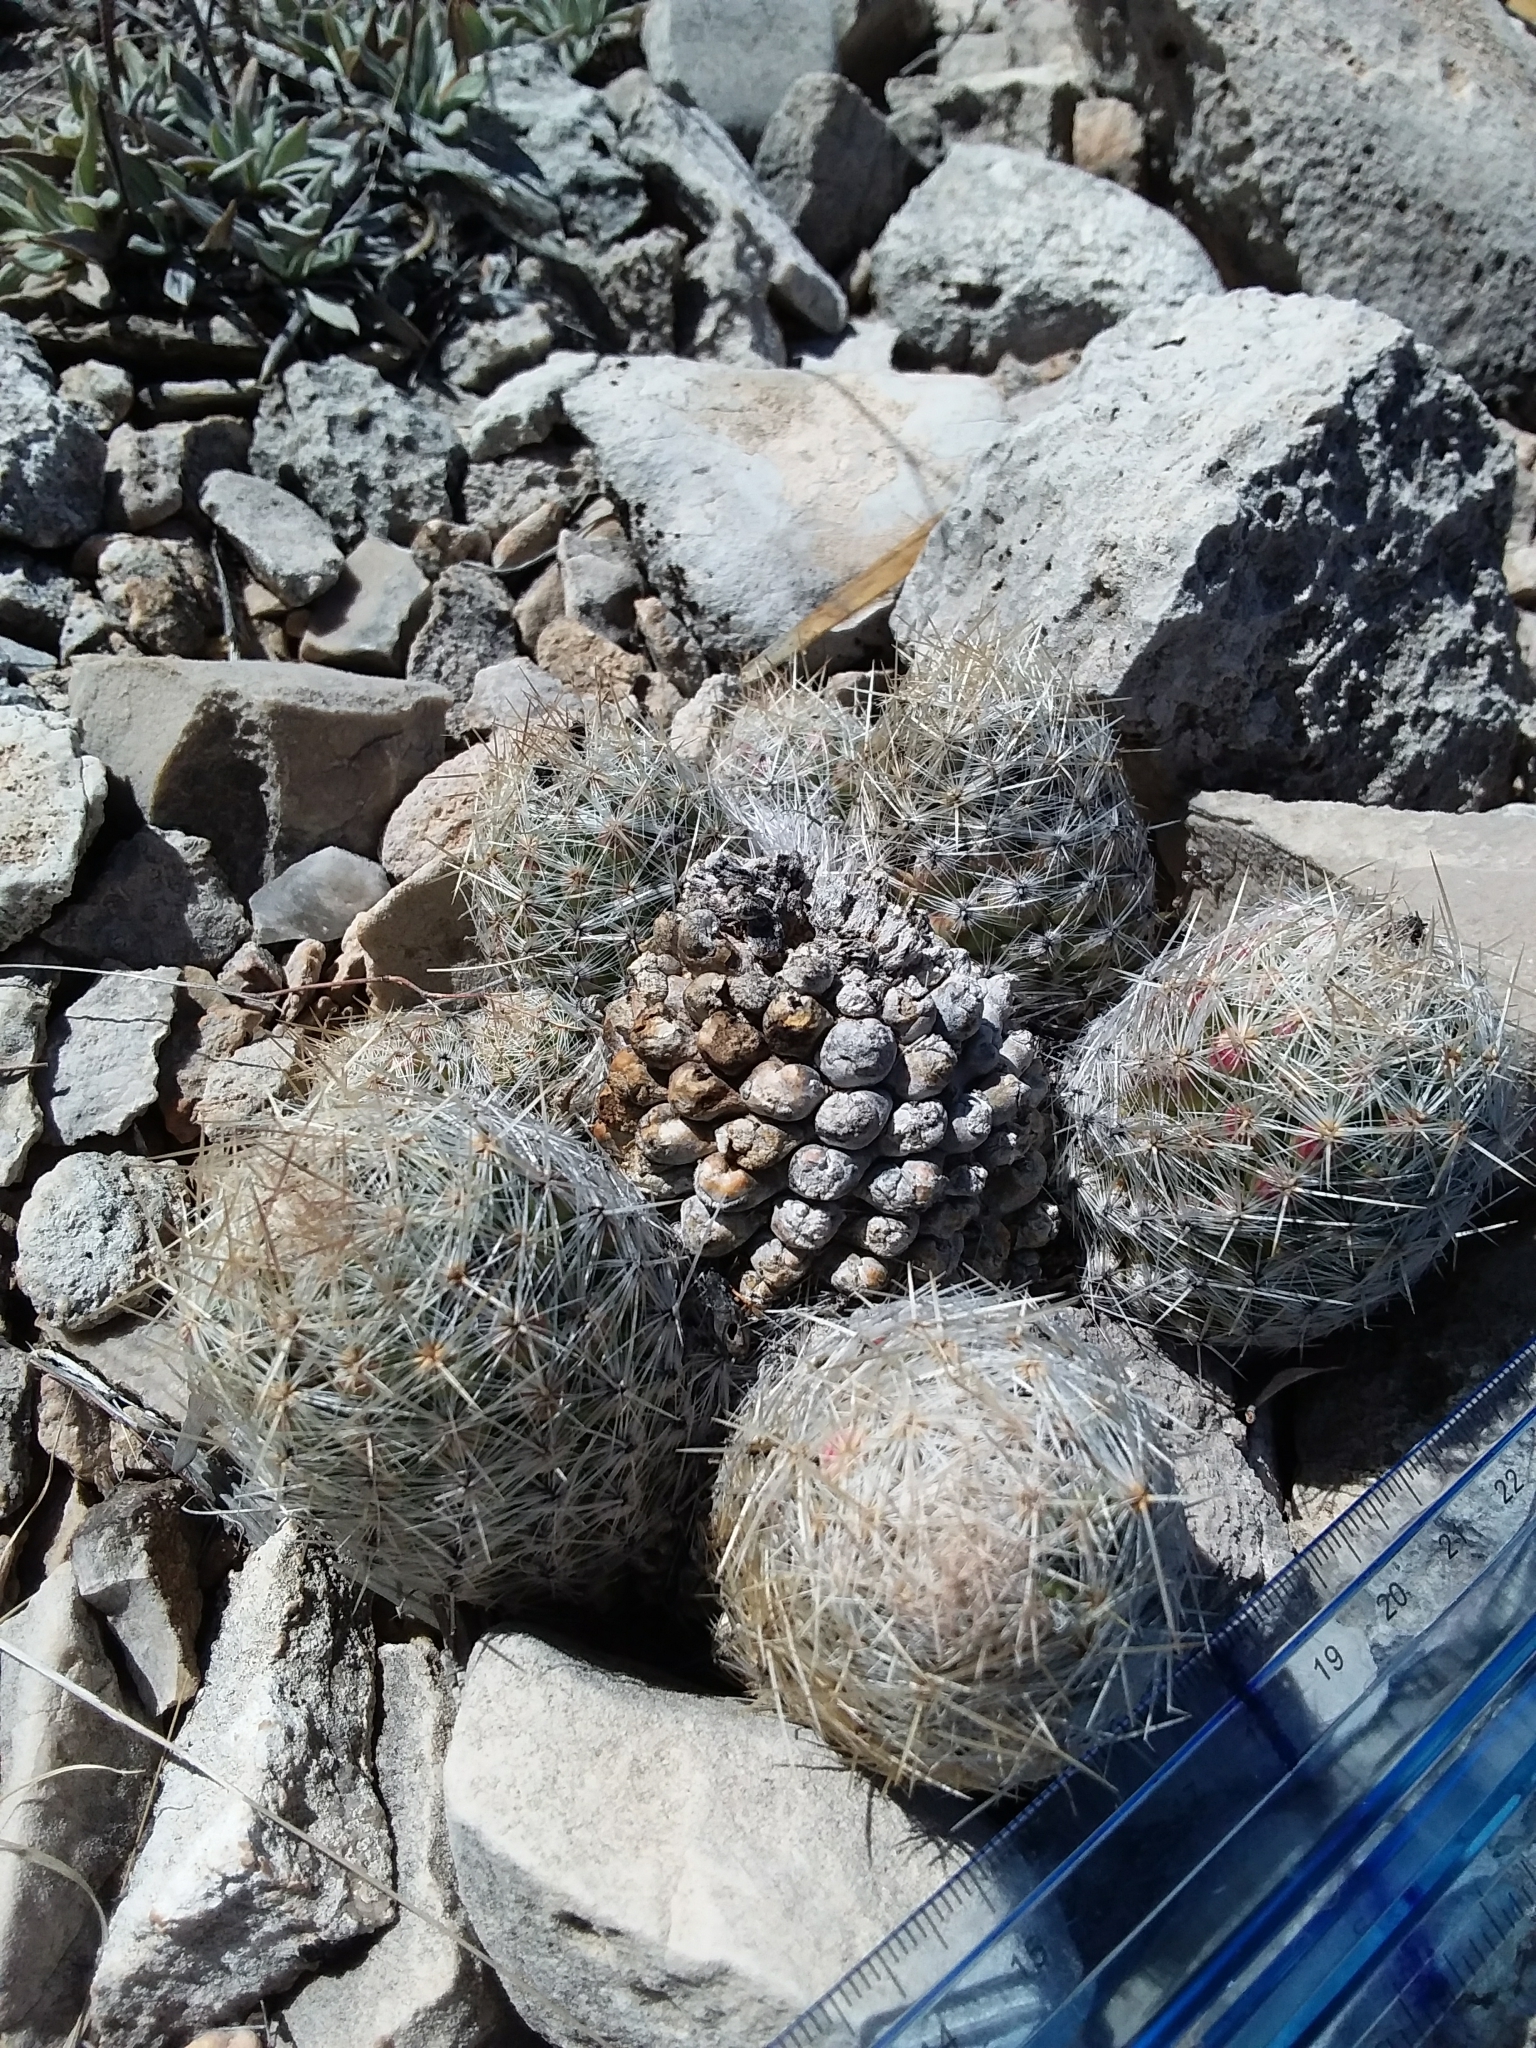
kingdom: Plantae
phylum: Tracheophyta
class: Magnoliopsida
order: Caryophyllales
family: Cactaceae
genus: Pelecyphora
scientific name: Pelecyphora tuberculosa
